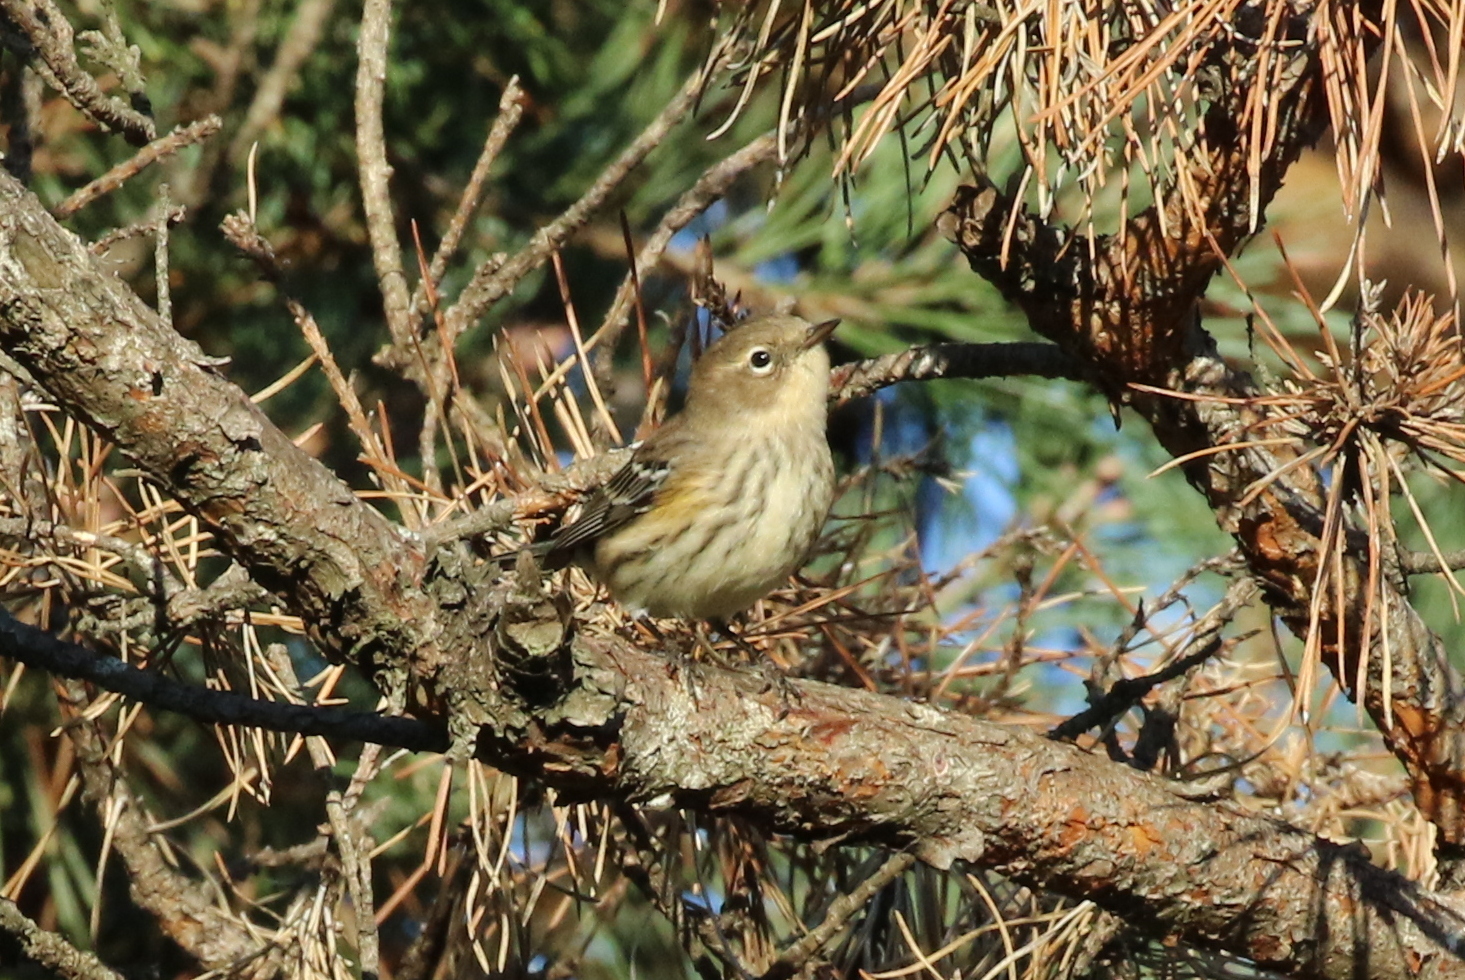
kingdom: Animalia
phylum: Chordata
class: Aves
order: Passeriformes
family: Parulidae
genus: Setophaga
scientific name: Setophaga palmarum
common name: Palm warbler
